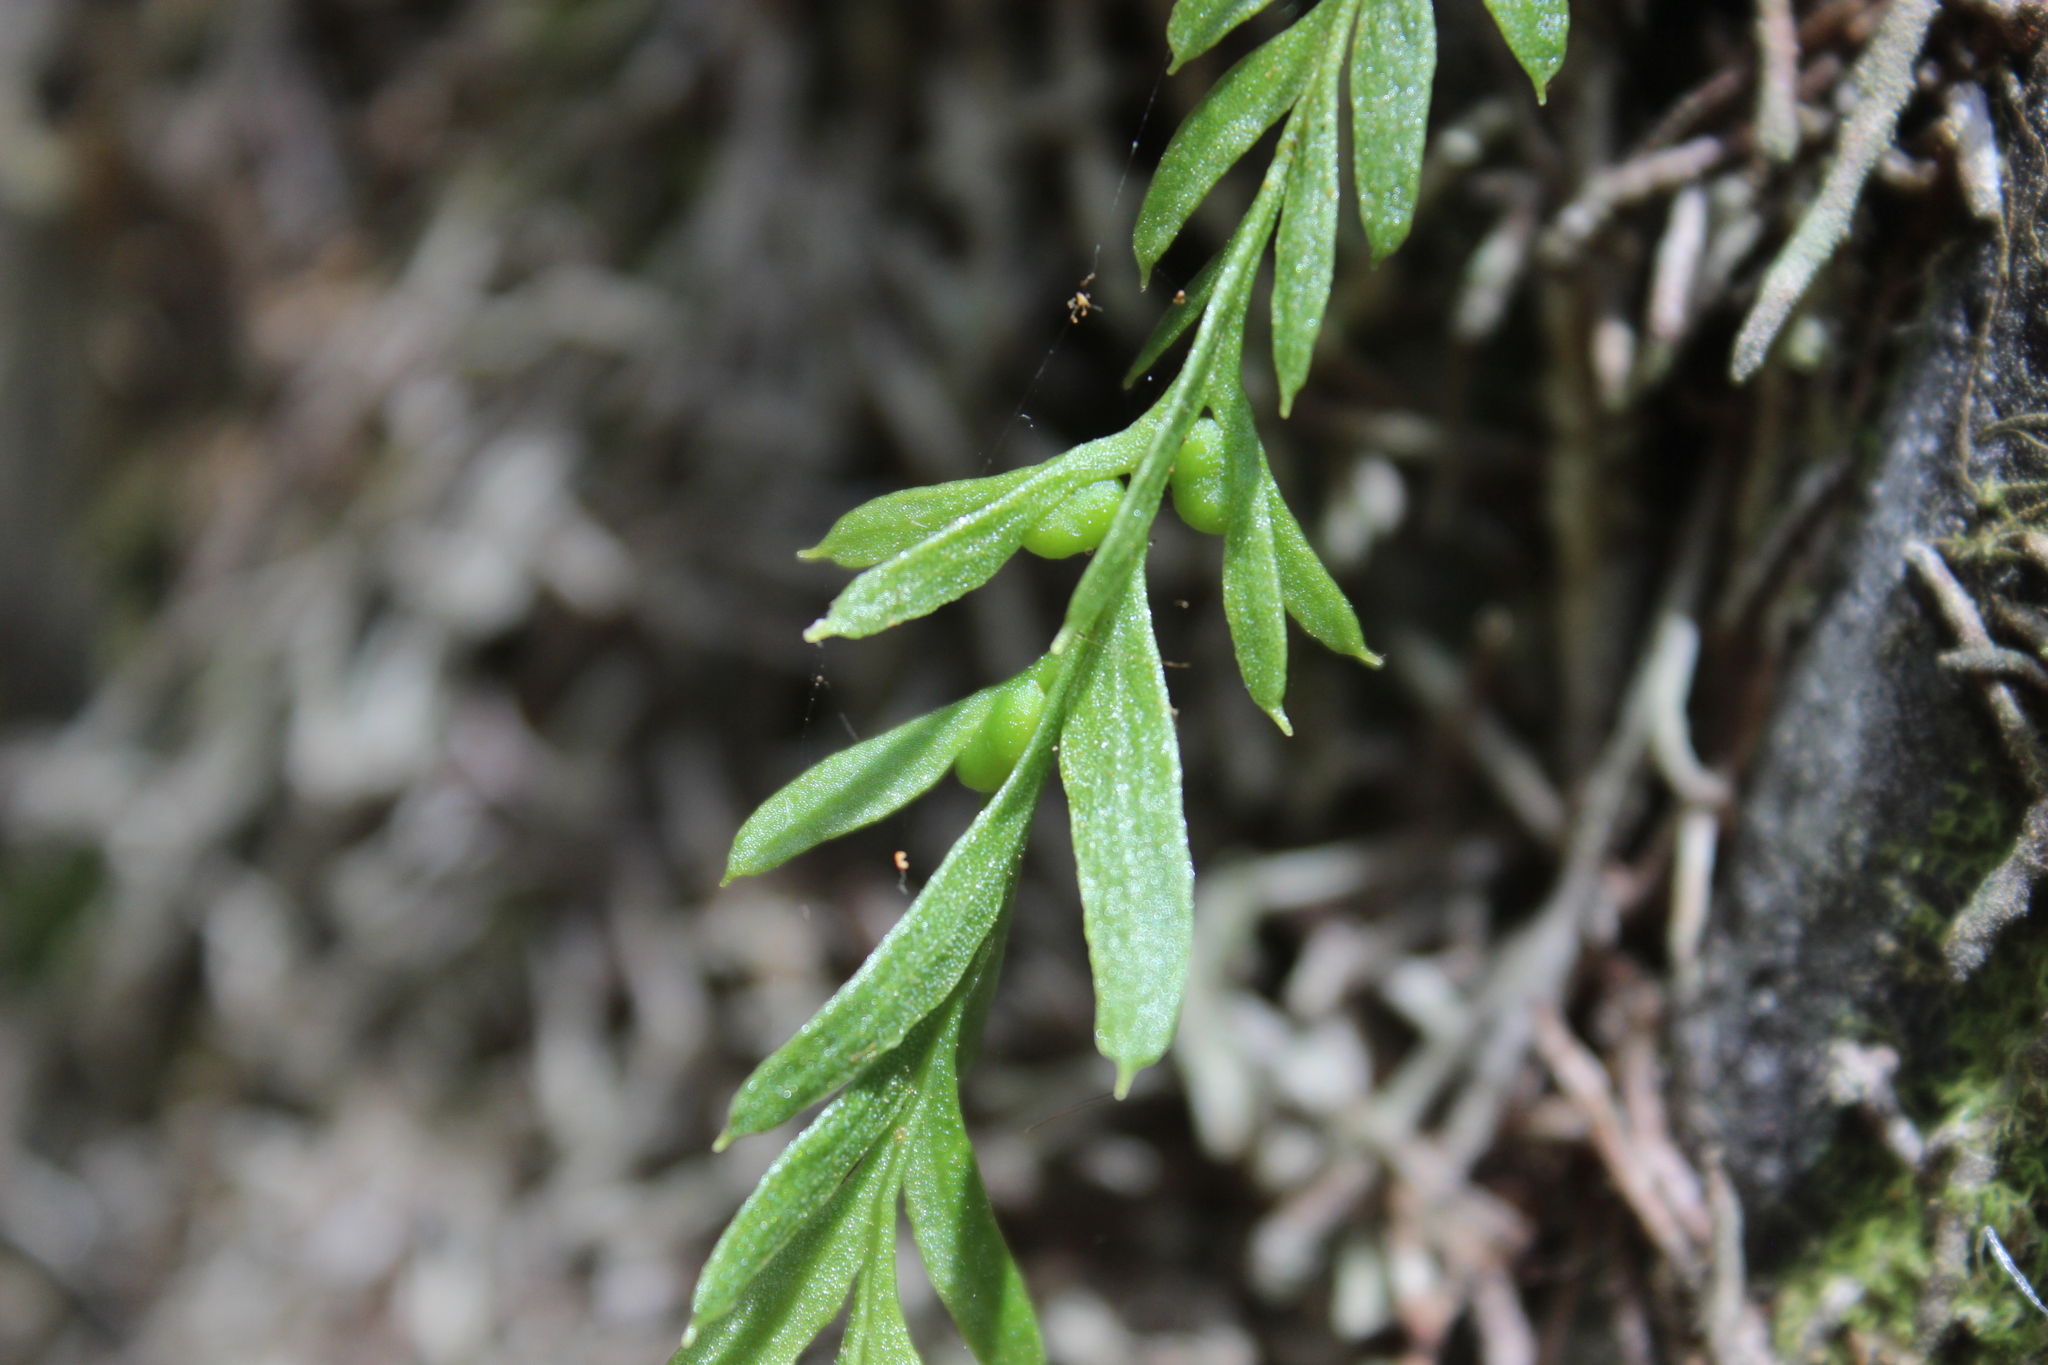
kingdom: Plantae
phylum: Tracheophyta
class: Polypodiopsida
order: Psilotales
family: Psilotaceae
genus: Tmesipteris
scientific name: Tmesipteris elongata
